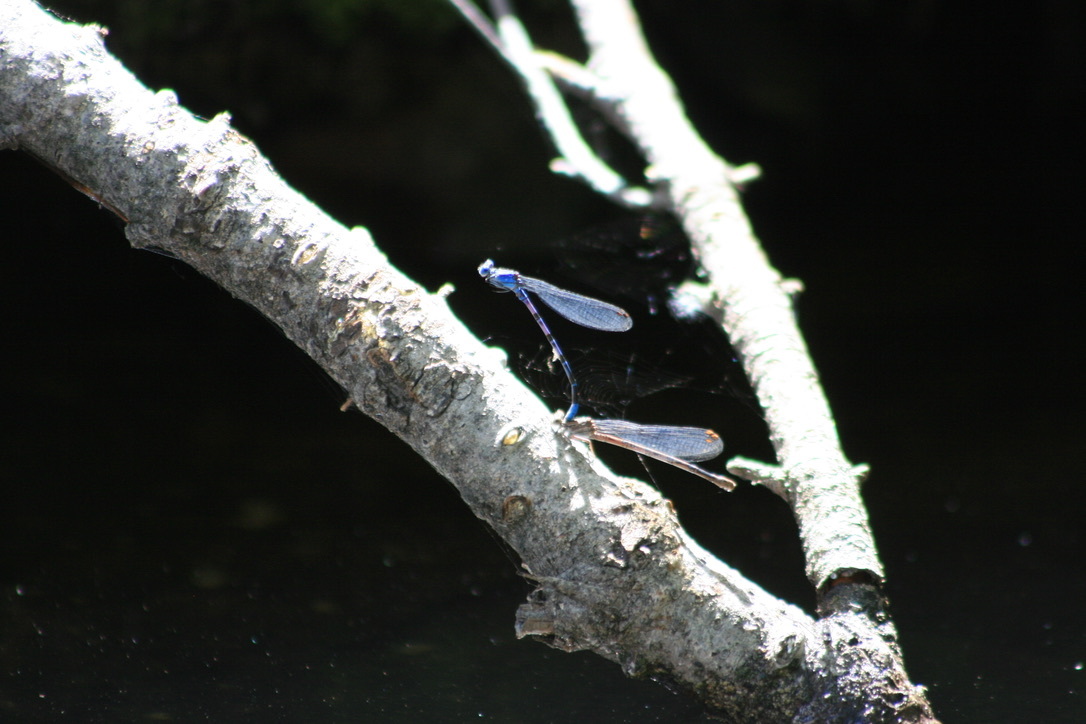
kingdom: Animalia
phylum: Arthropoda
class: Insecta
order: Odonata
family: Coenagrionidae
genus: Argia
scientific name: Argia vivida
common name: Vivid dancer
